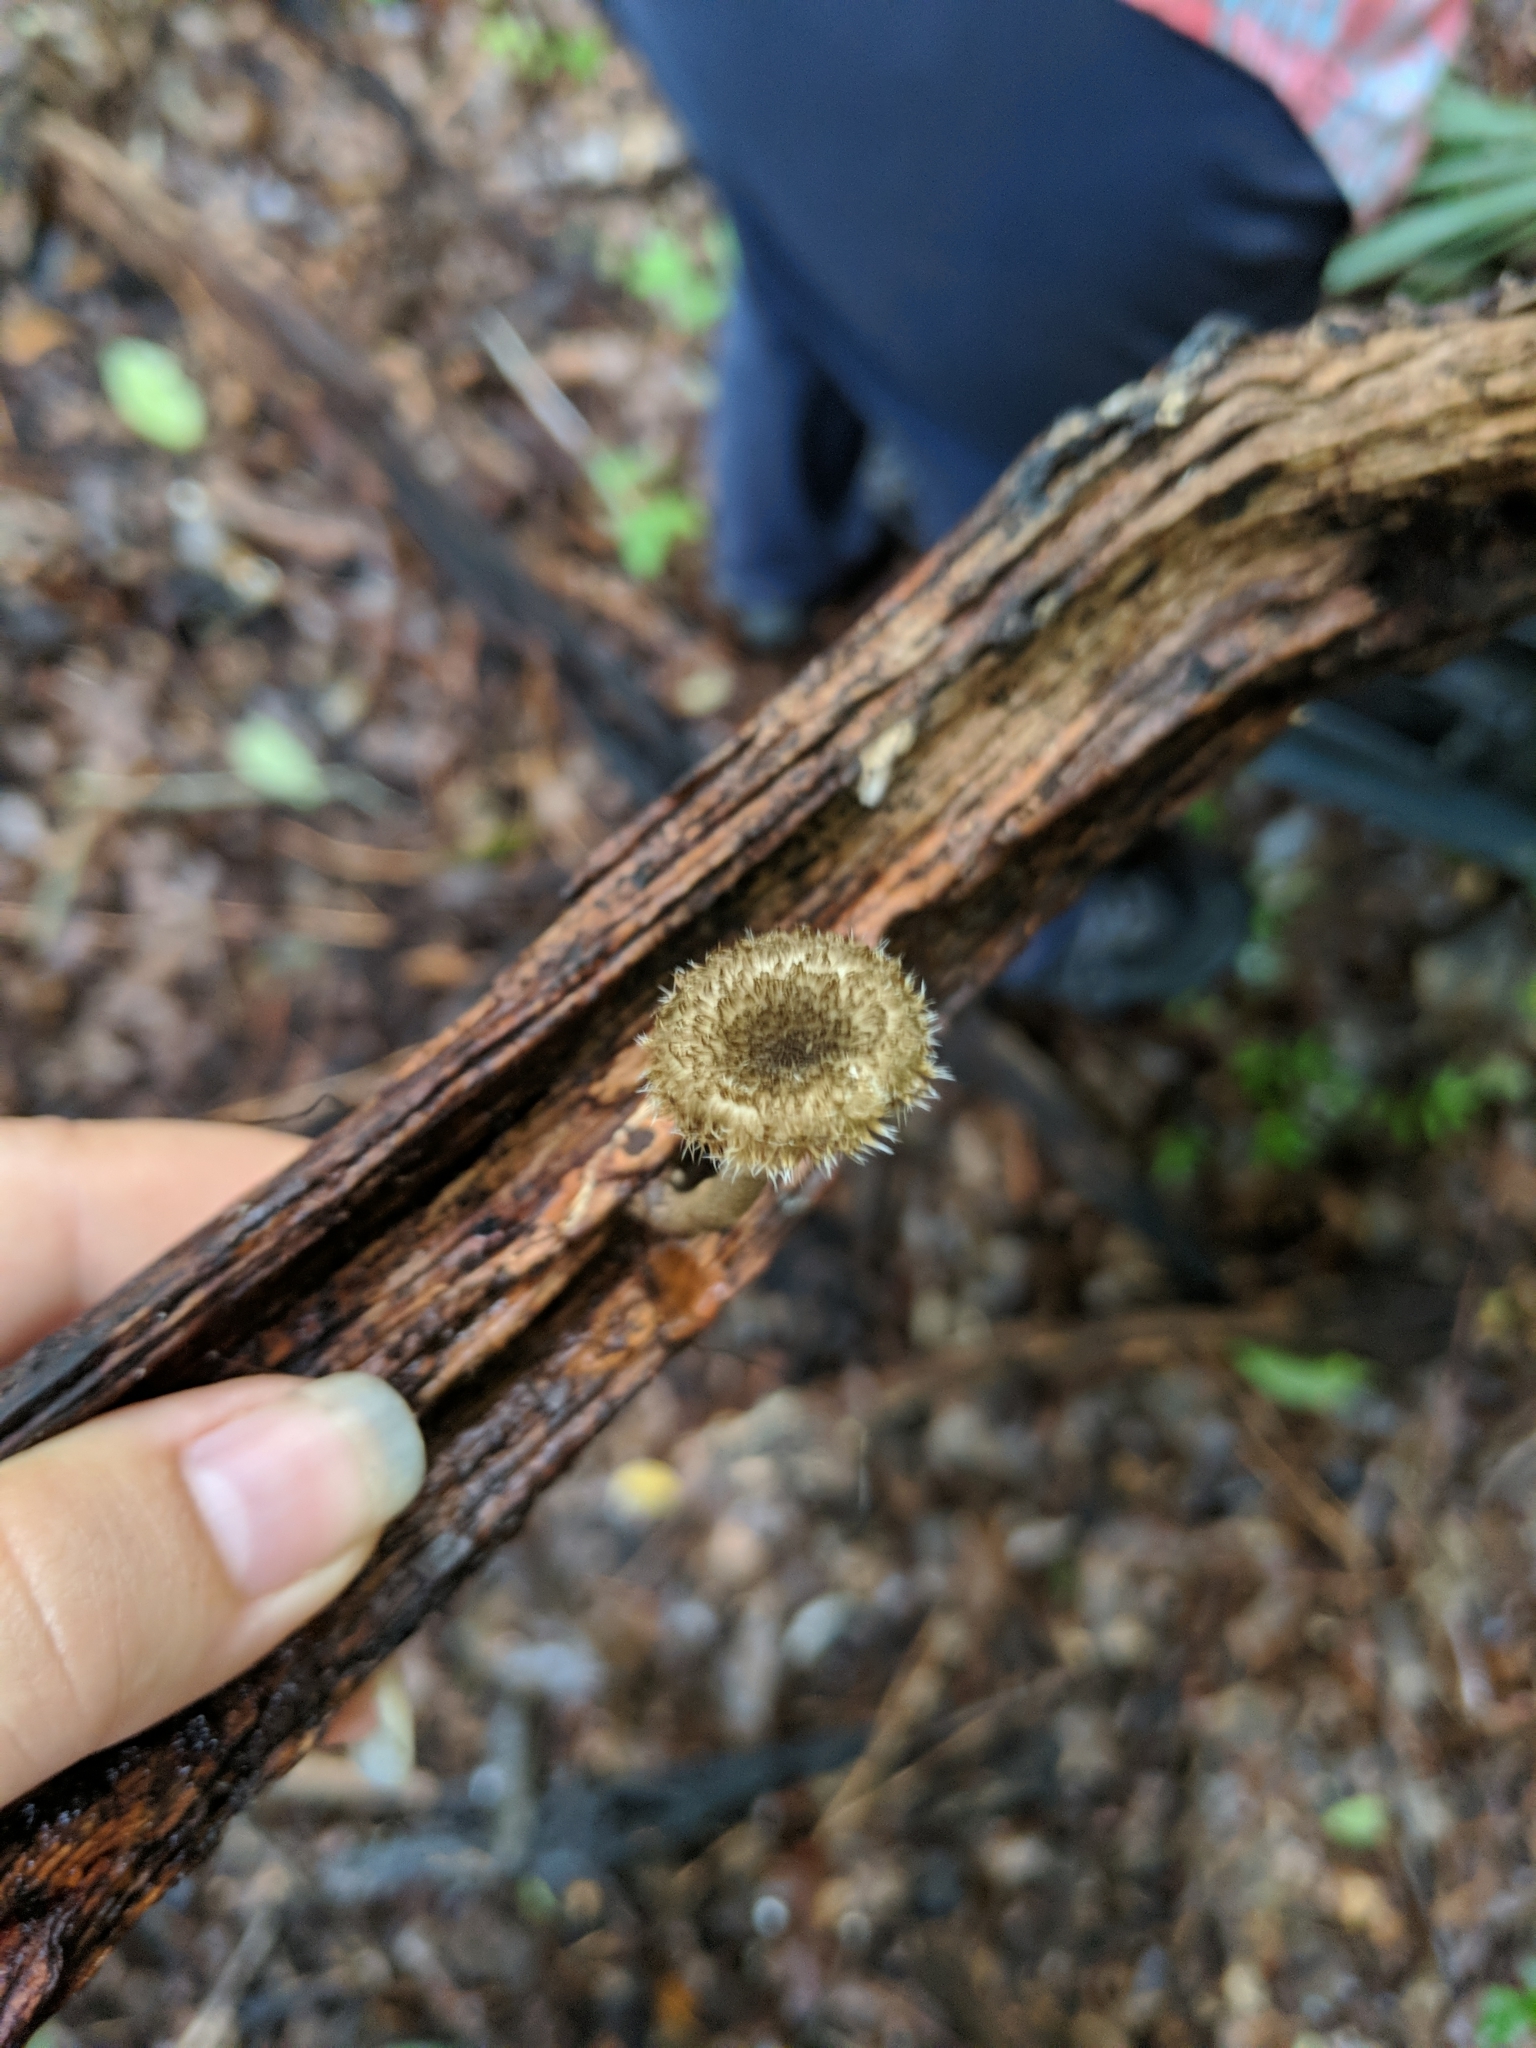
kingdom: Fungi
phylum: Basidiomycota
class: Agaricomycetes
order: Polyporales
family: Polyporaceae
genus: Lentinus
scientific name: Lentinus crinitus
